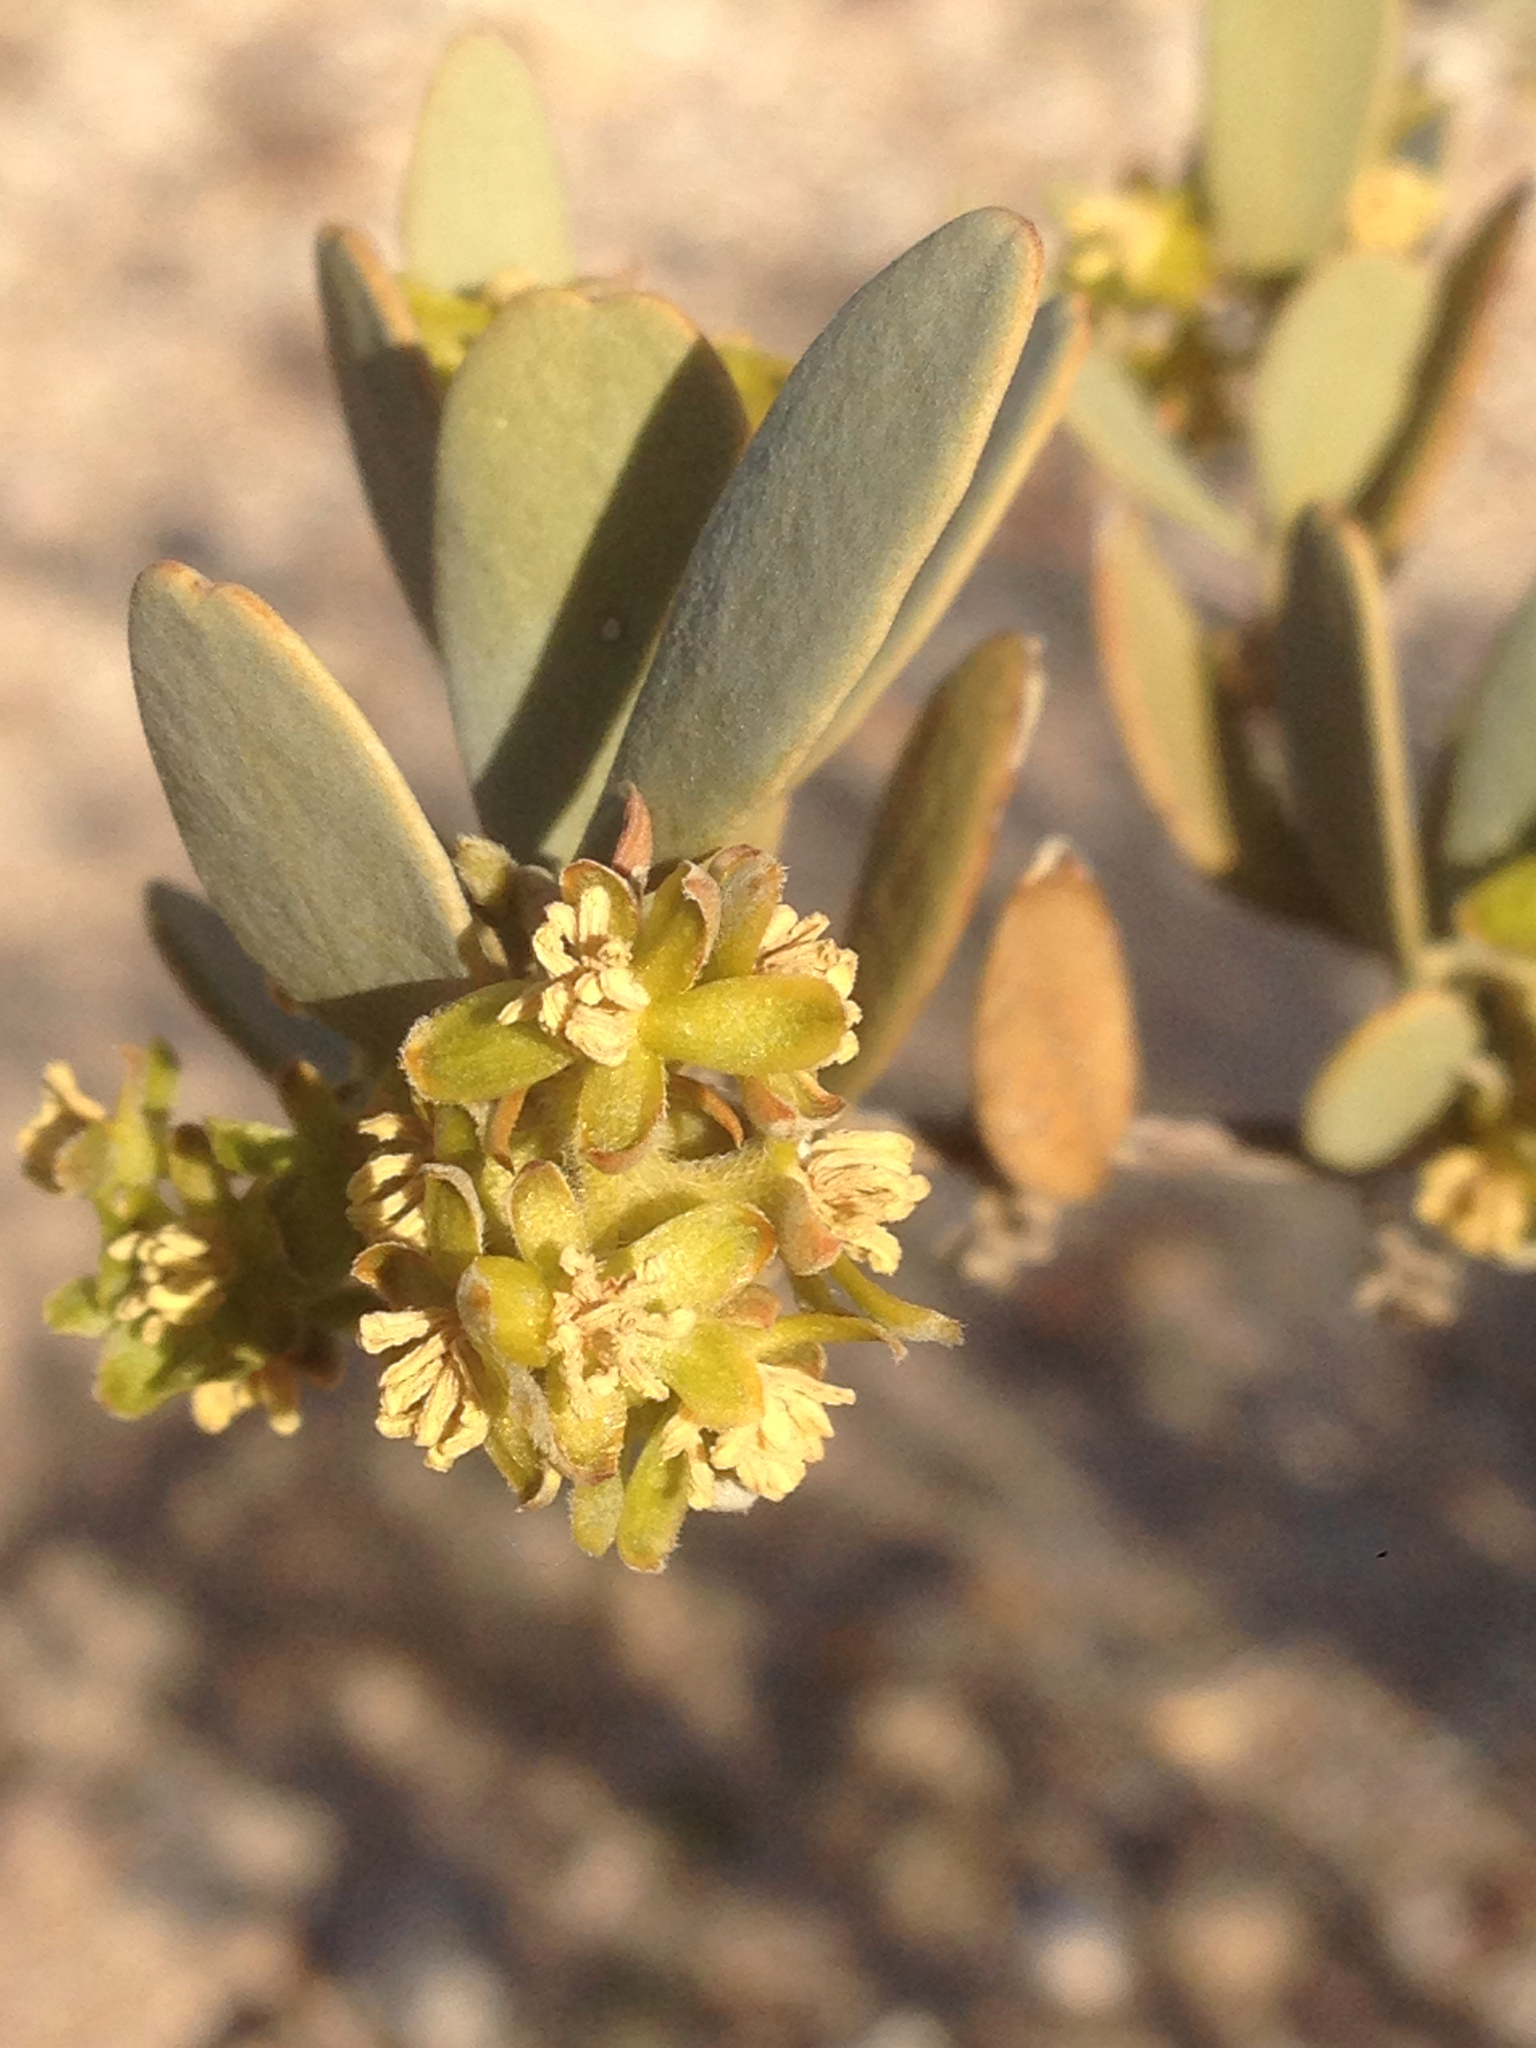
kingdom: Plantae
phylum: Tracheophyta
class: Magnoliopsida
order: Caryophyllales
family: Simmondsiaceae
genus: Simmondsia
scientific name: Simmondsia chinensis
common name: Jojoba
